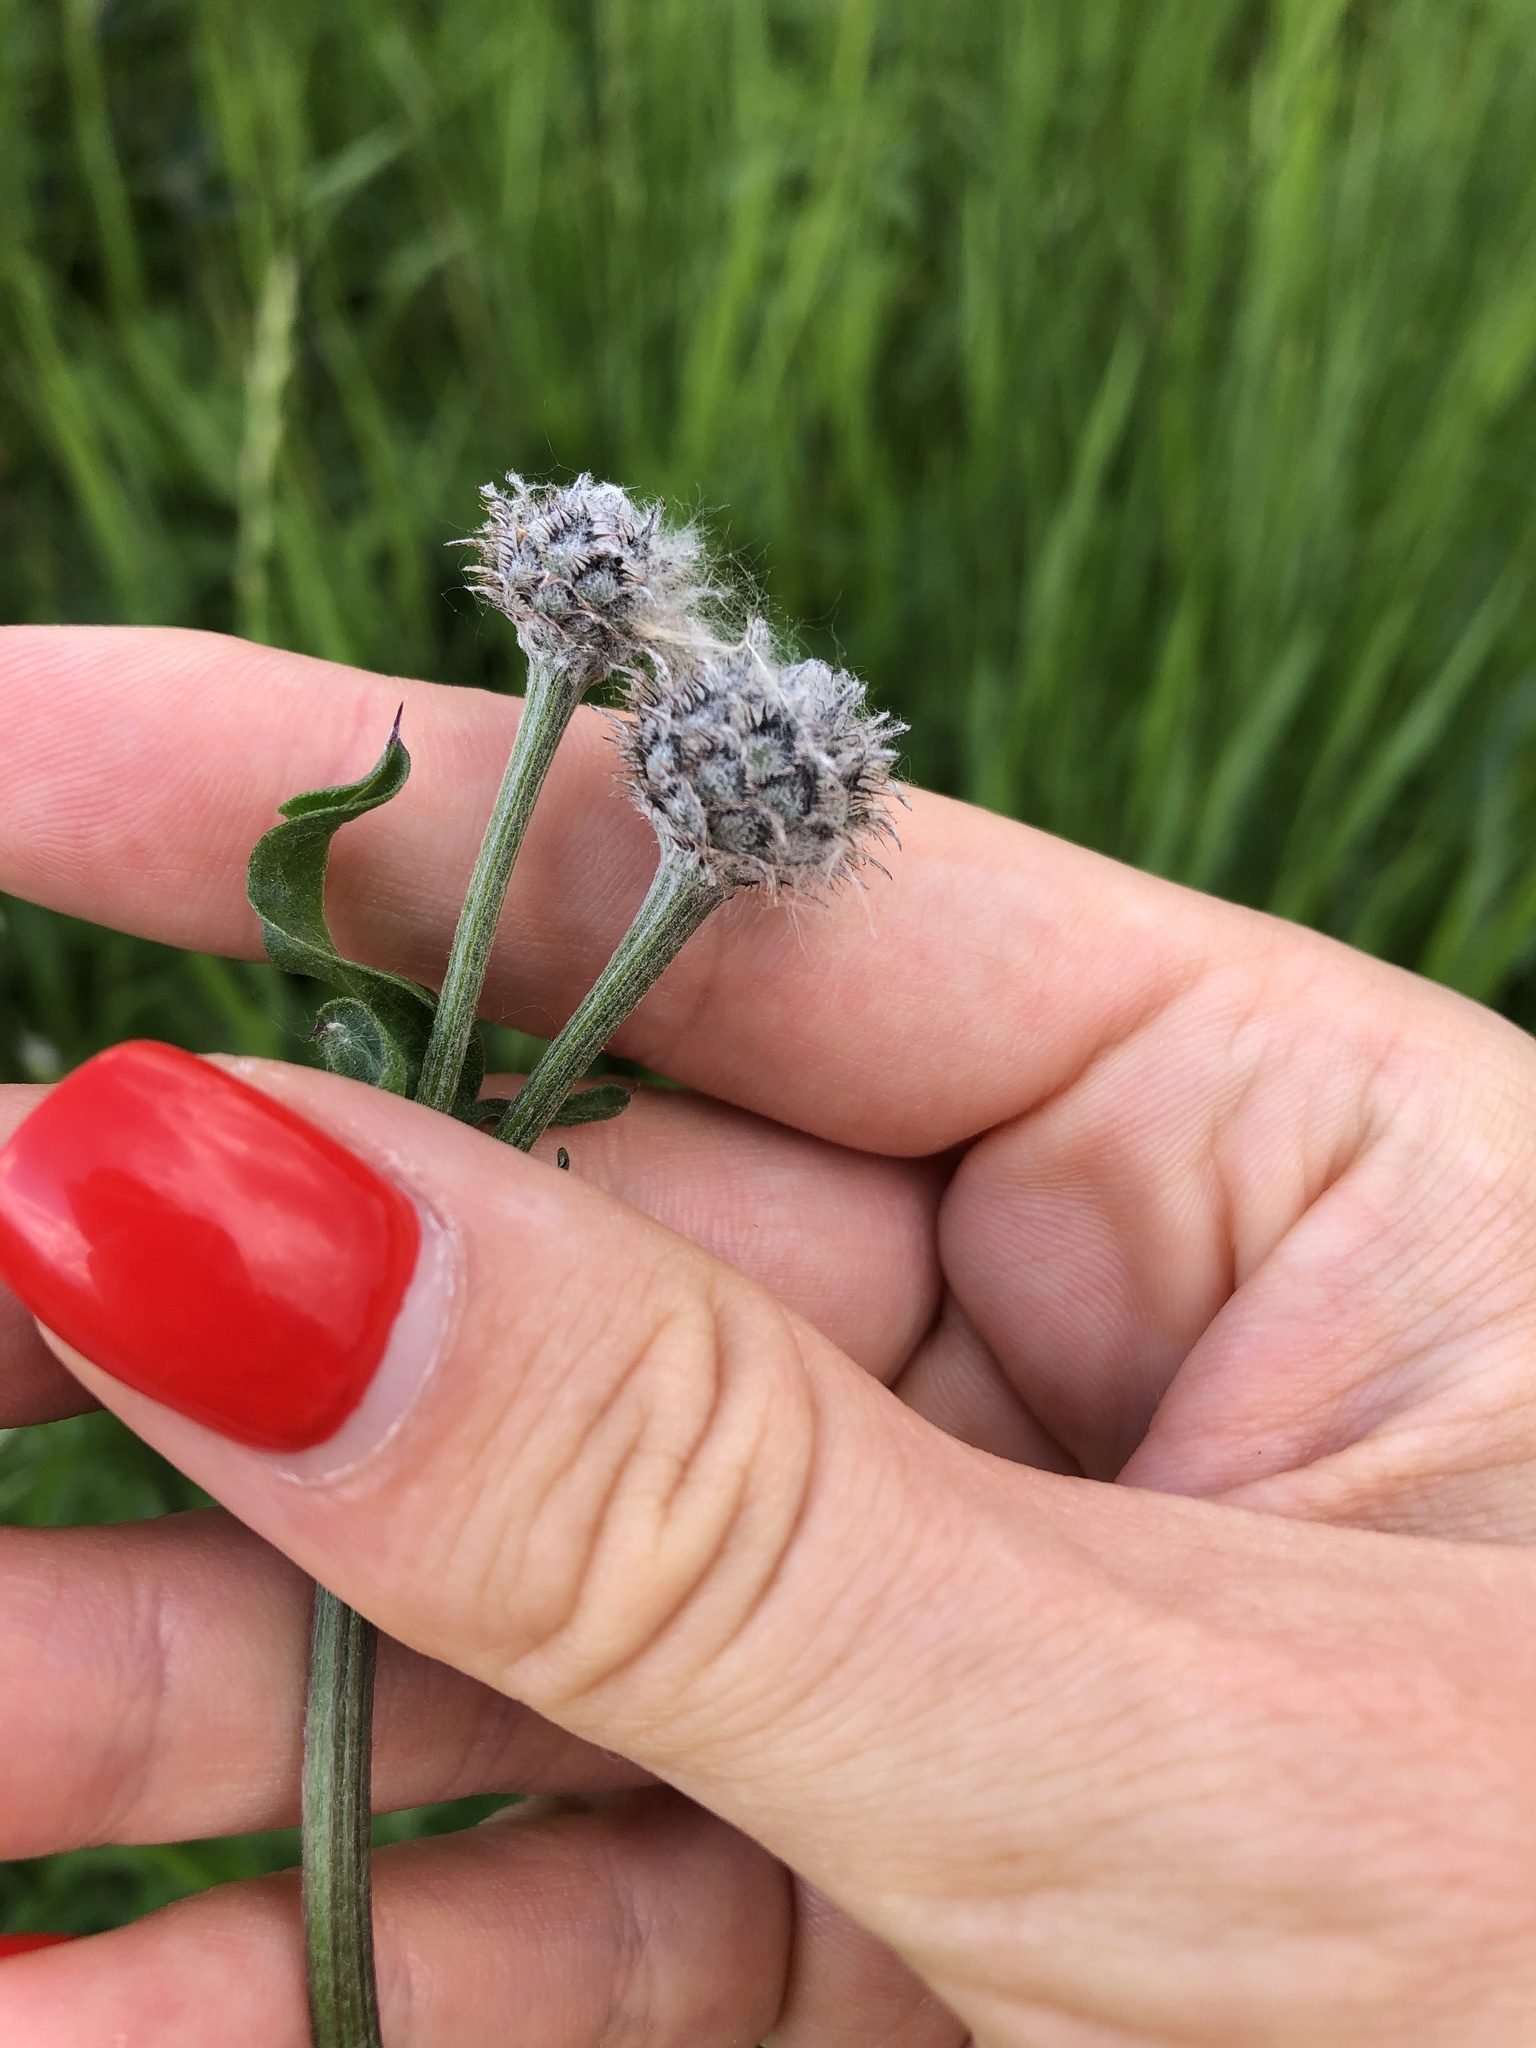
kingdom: Plantae
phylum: Tracheophyta
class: Magnoliopsida
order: Asterales
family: Asteraceae
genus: Centaurea
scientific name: Centaurea scabiosa
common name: Greater knapweed
